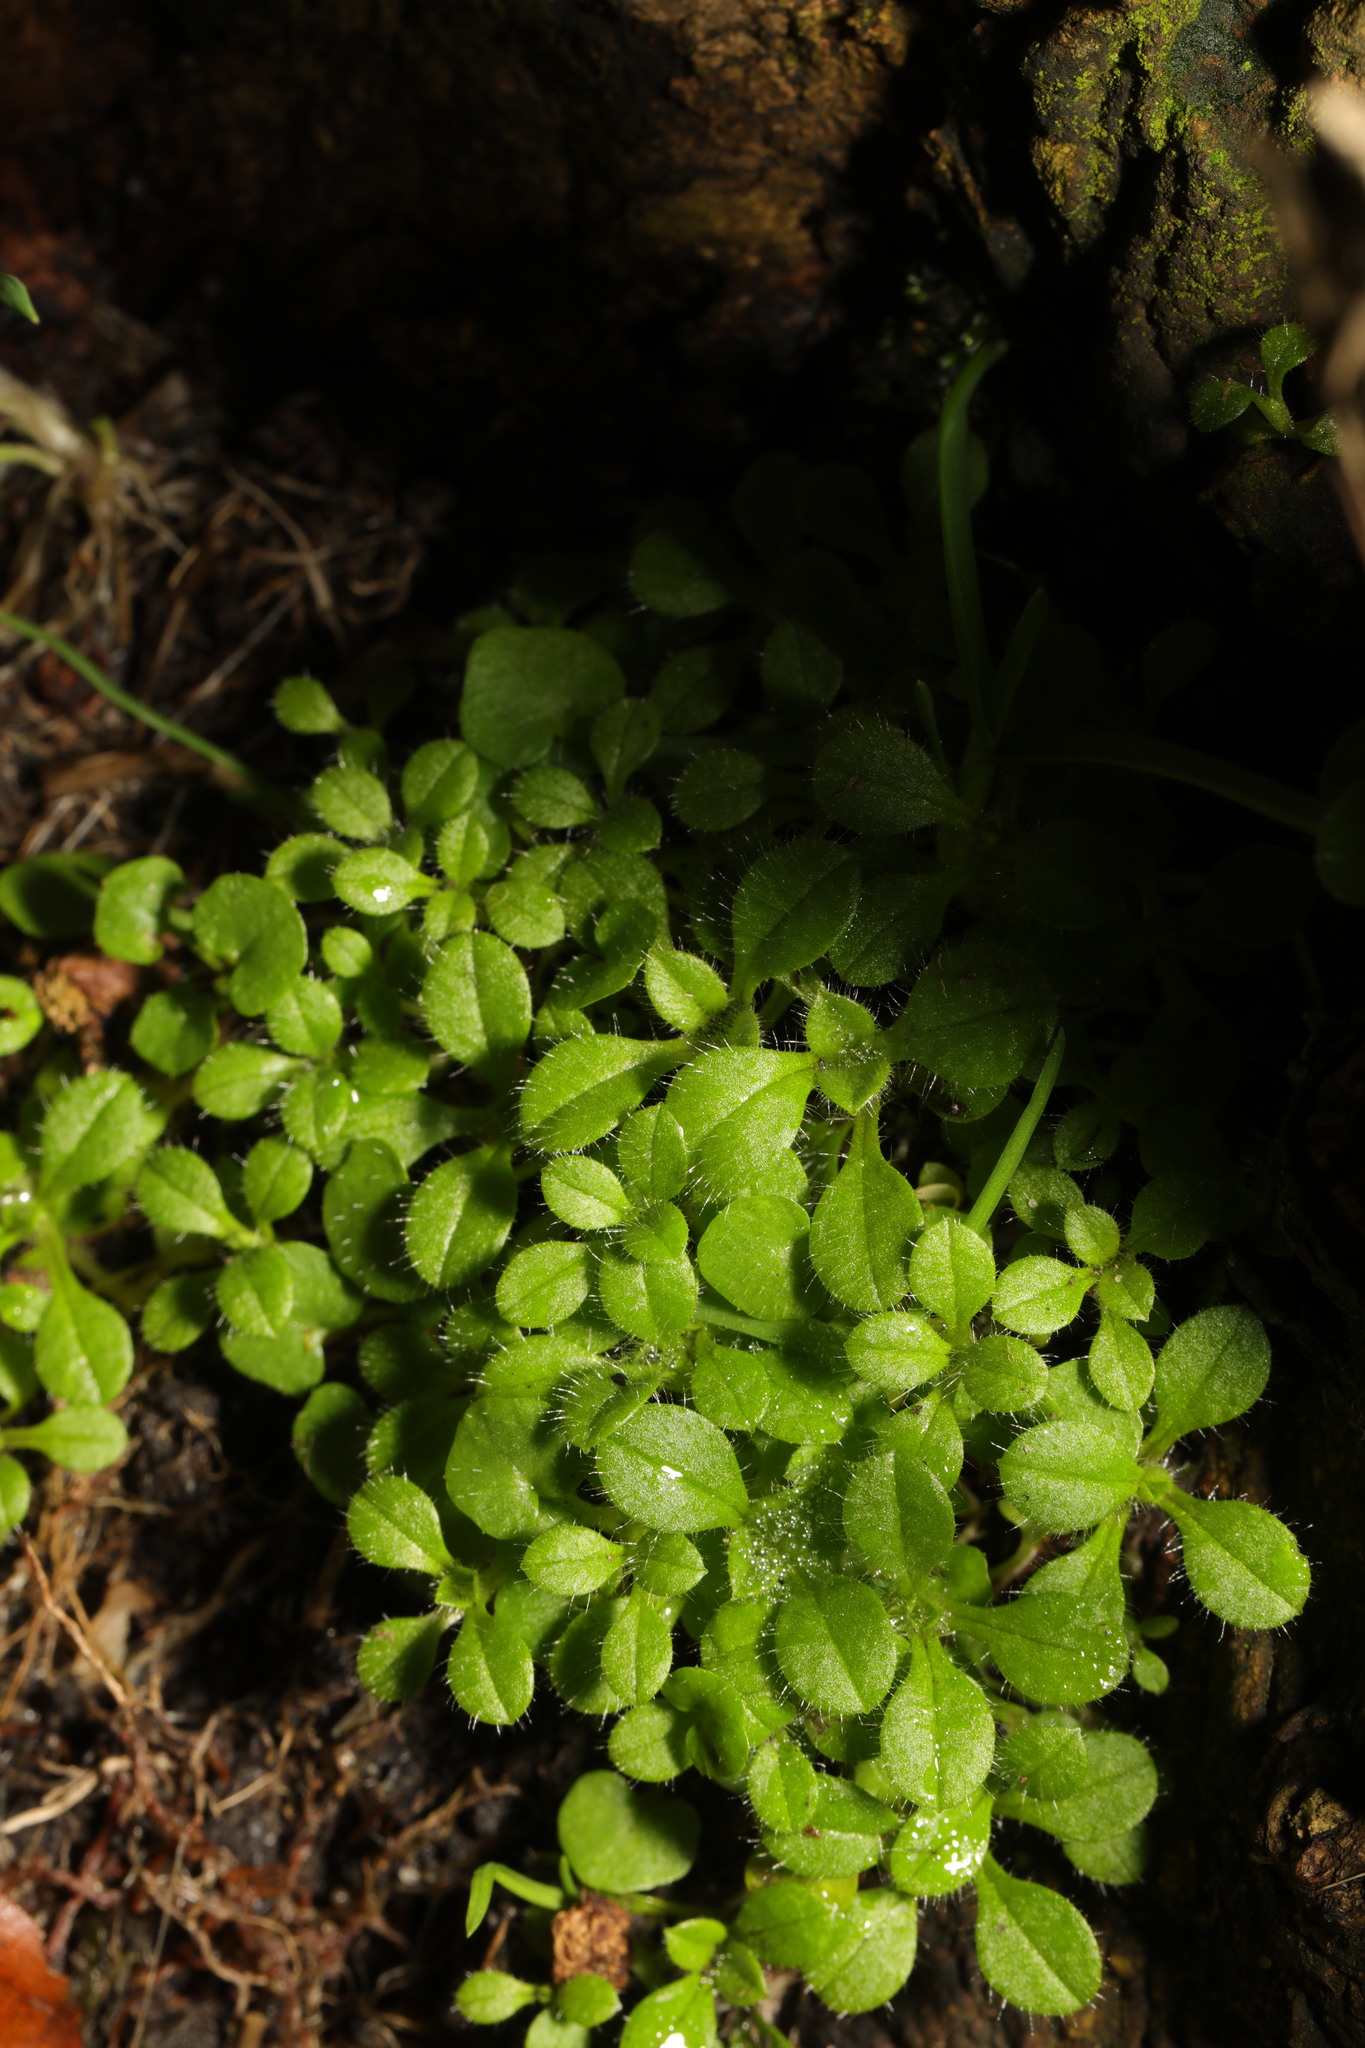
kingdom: Plantae
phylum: Tracheophyta
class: Magnoliopsida
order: Caryophyllales
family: Caryophyllaceae
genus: Cerastium
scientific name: Cerastium fontanum
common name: Common mouse-ear
